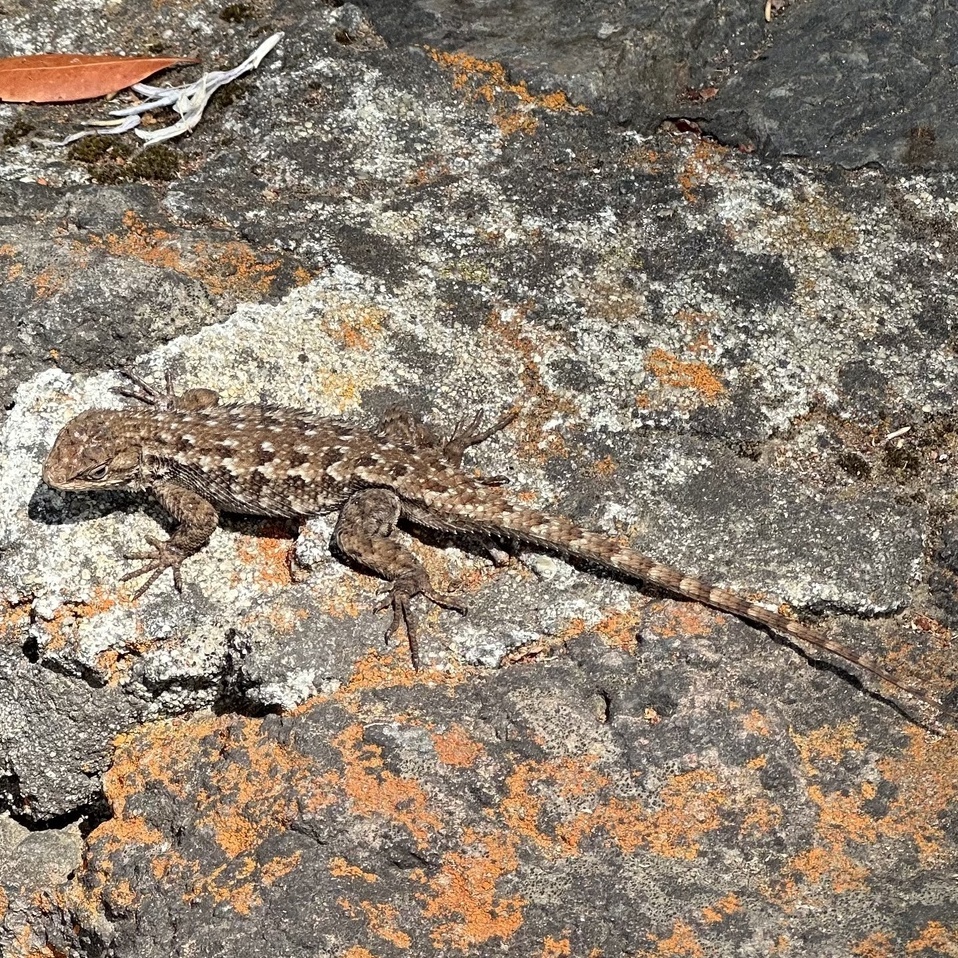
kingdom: Animalia
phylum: Chordata
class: Squamata
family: Phrynosomatidae
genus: Sceloporus
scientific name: Sceloporus occidentalis
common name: Western fence lizard
